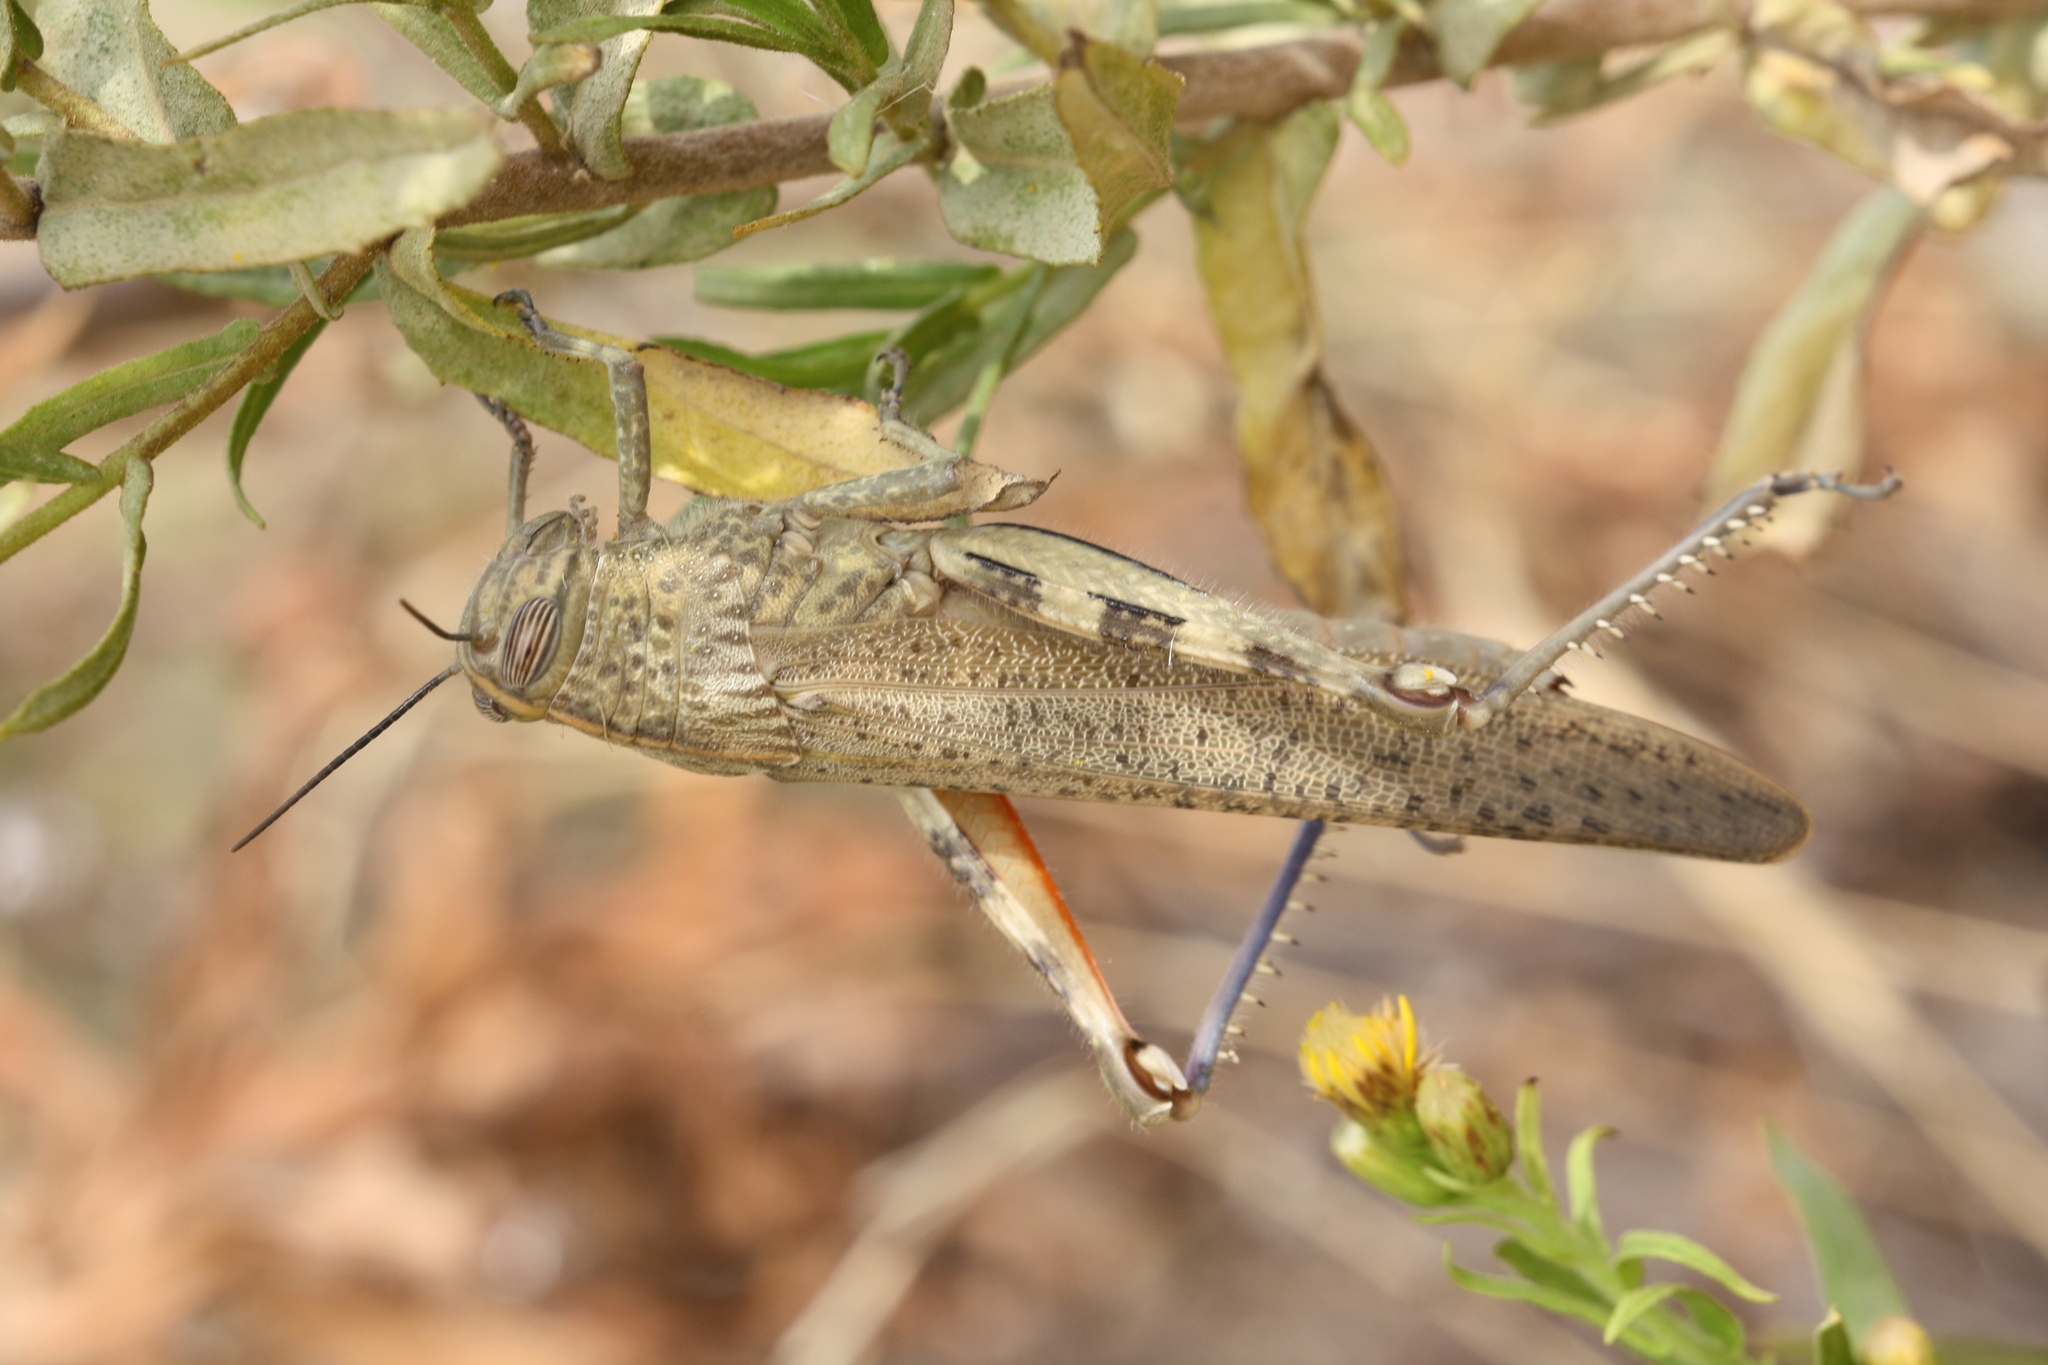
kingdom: Animalia
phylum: Arthropoda
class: Insecta
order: Orthoptera
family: Acrididae
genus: Anacridium
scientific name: Anacridium aegyptium
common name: Egyptian grasshopper
